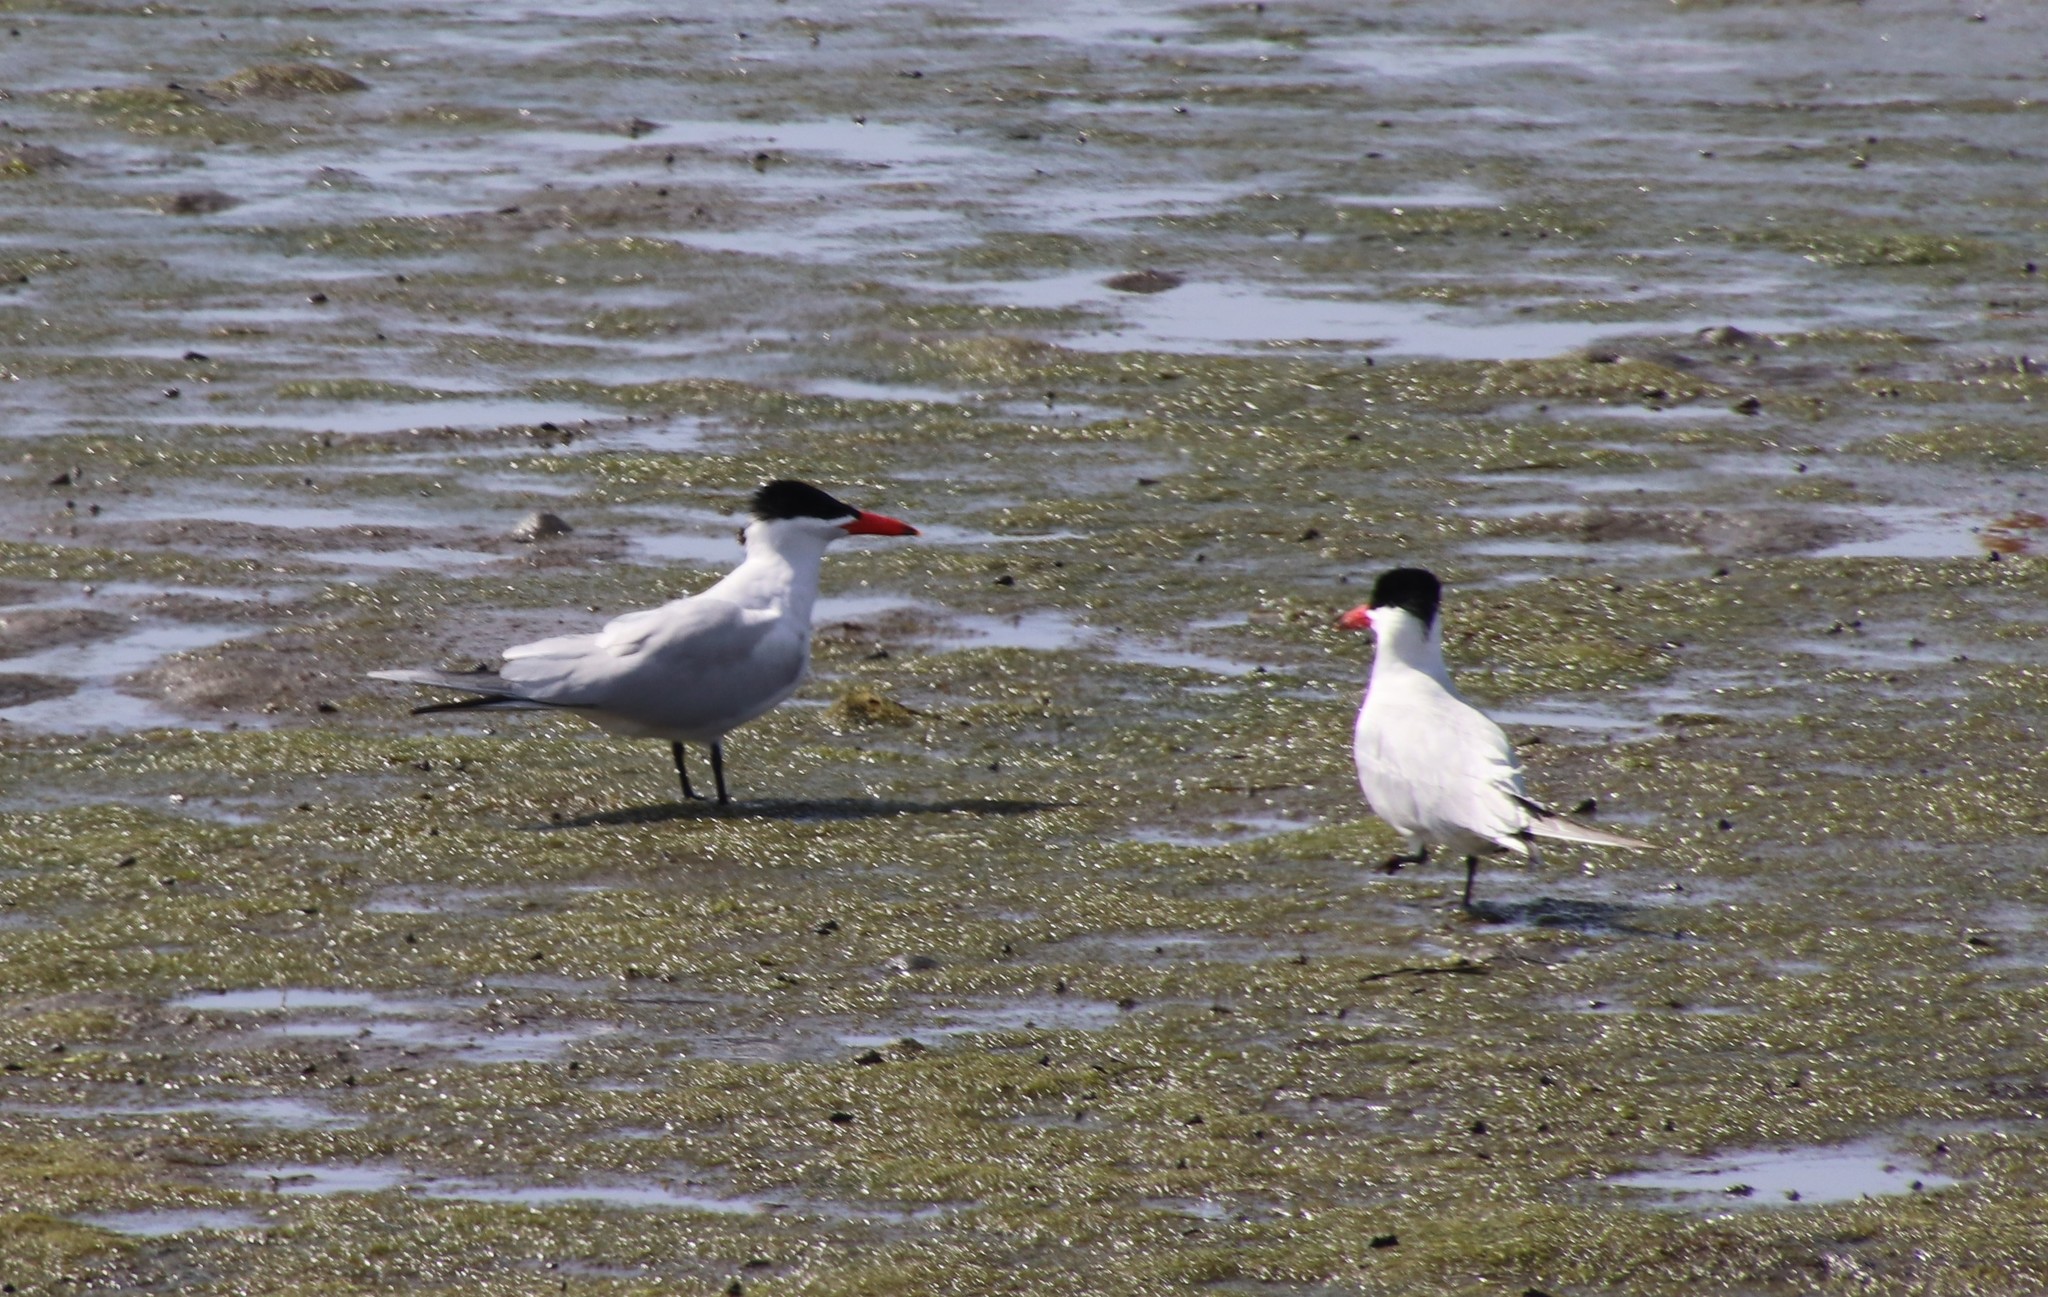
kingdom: Animalia
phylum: Chordata
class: Aves
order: Charadriiformes
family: Laridae
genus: Hydroprogne
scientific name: Hydroprogne caspia
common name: Caspian tern
